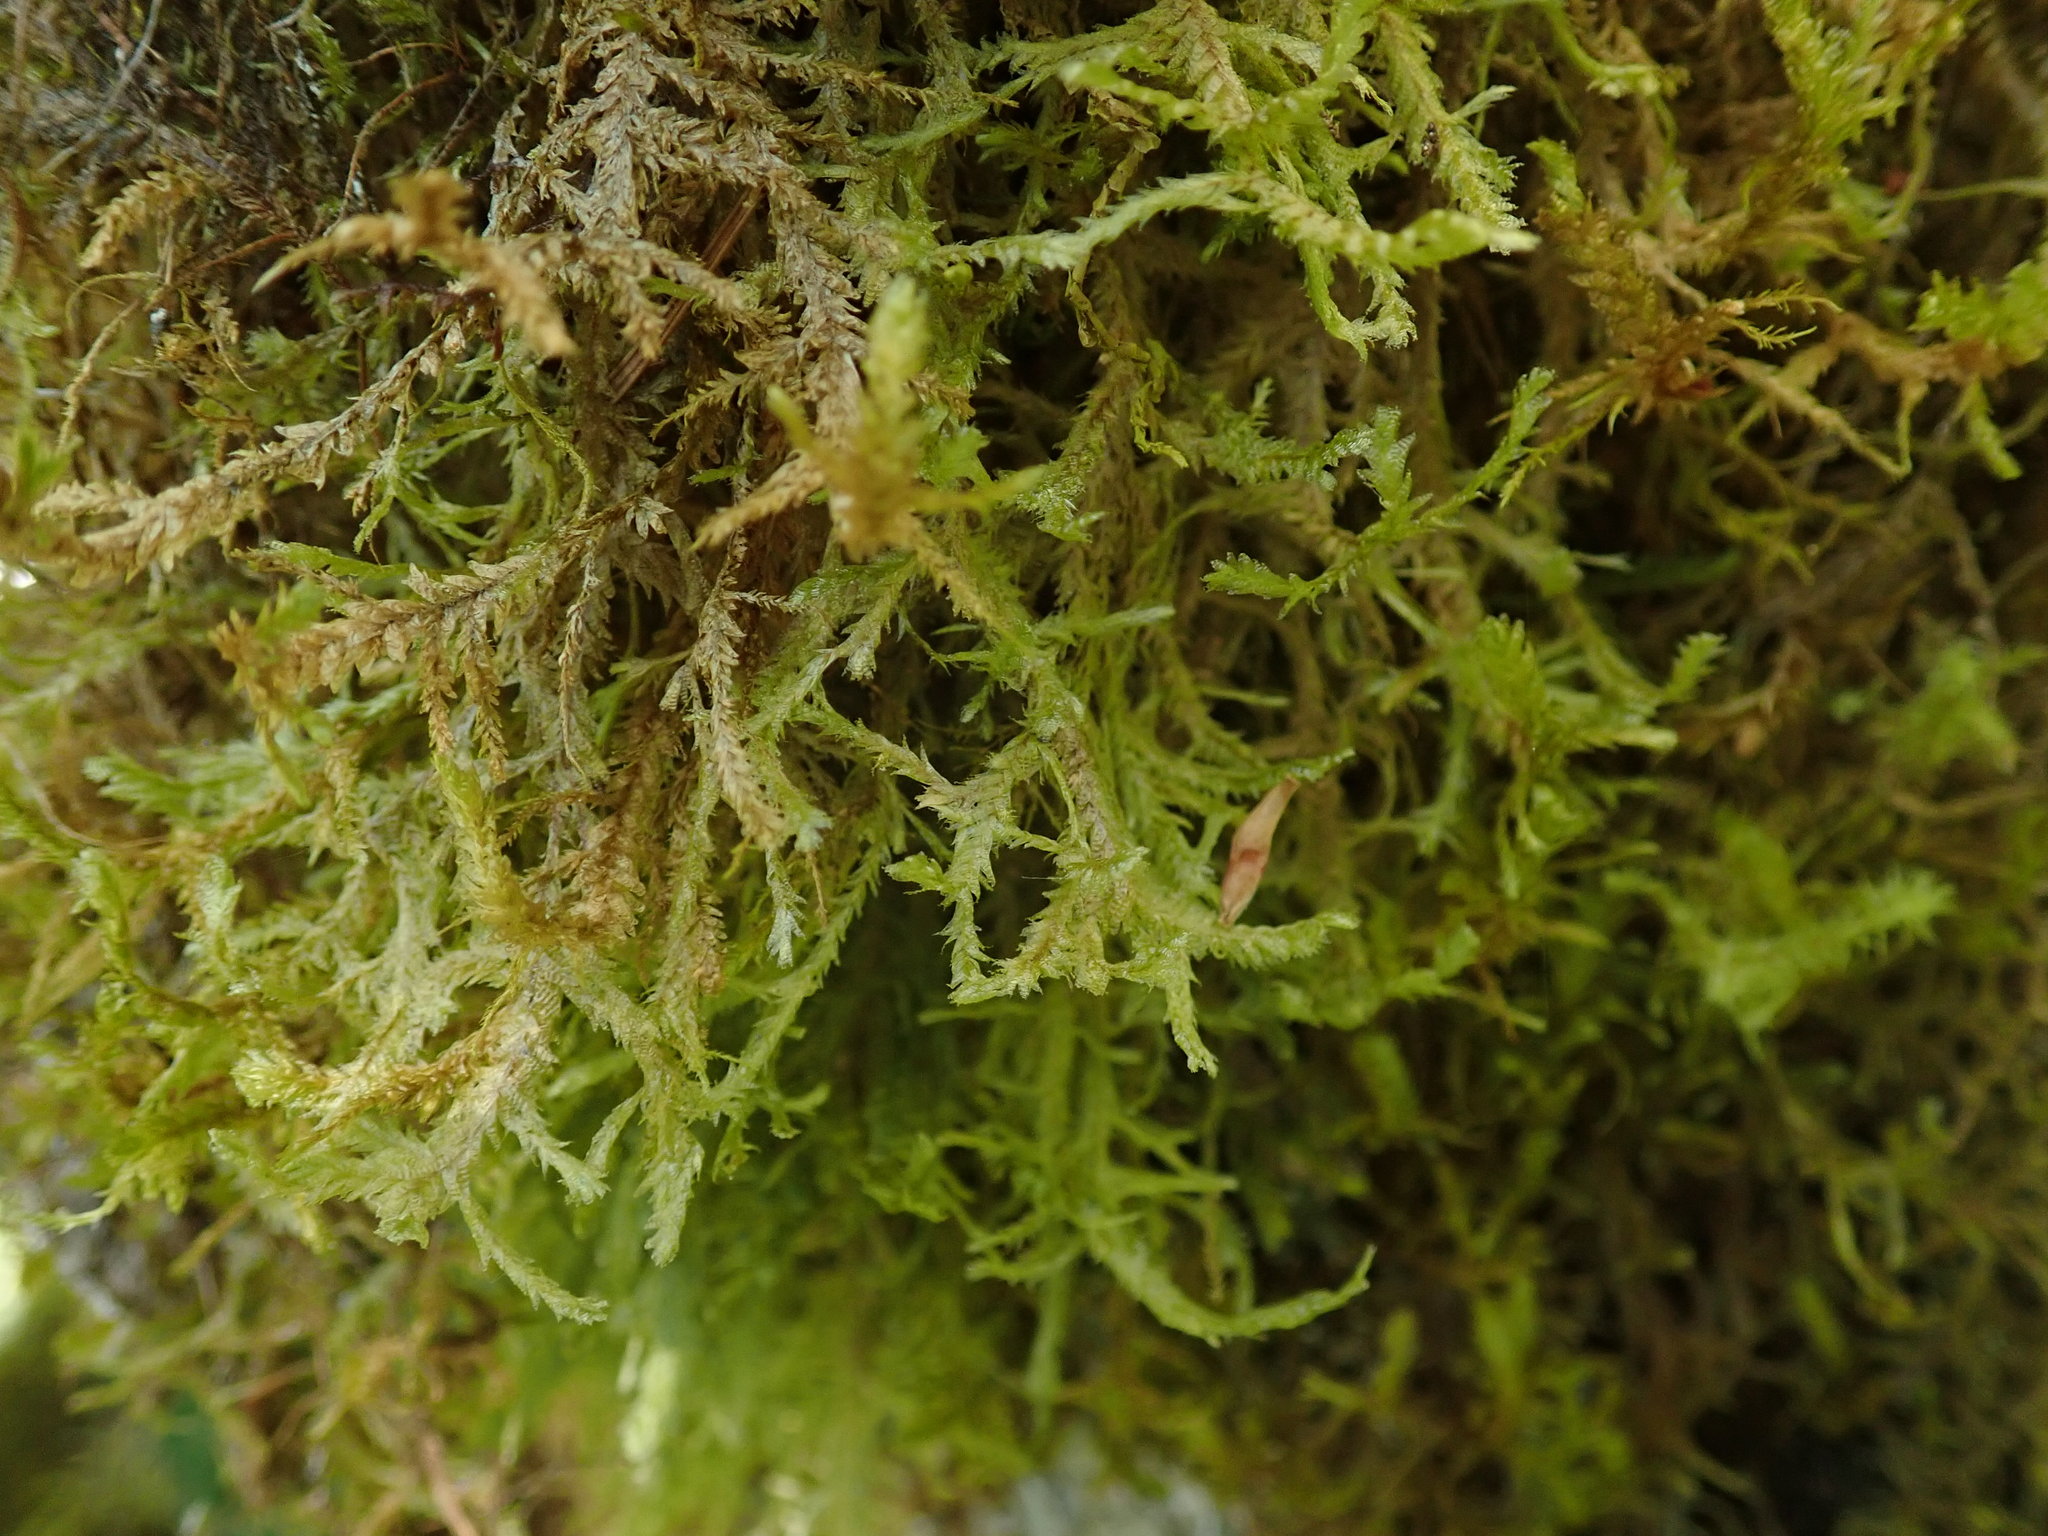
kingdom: Plantae
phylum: Bryophyta
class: Bryopsida
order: Hypnales
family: Neckeraceae
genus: Neckera
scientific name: Neckera douglasii
